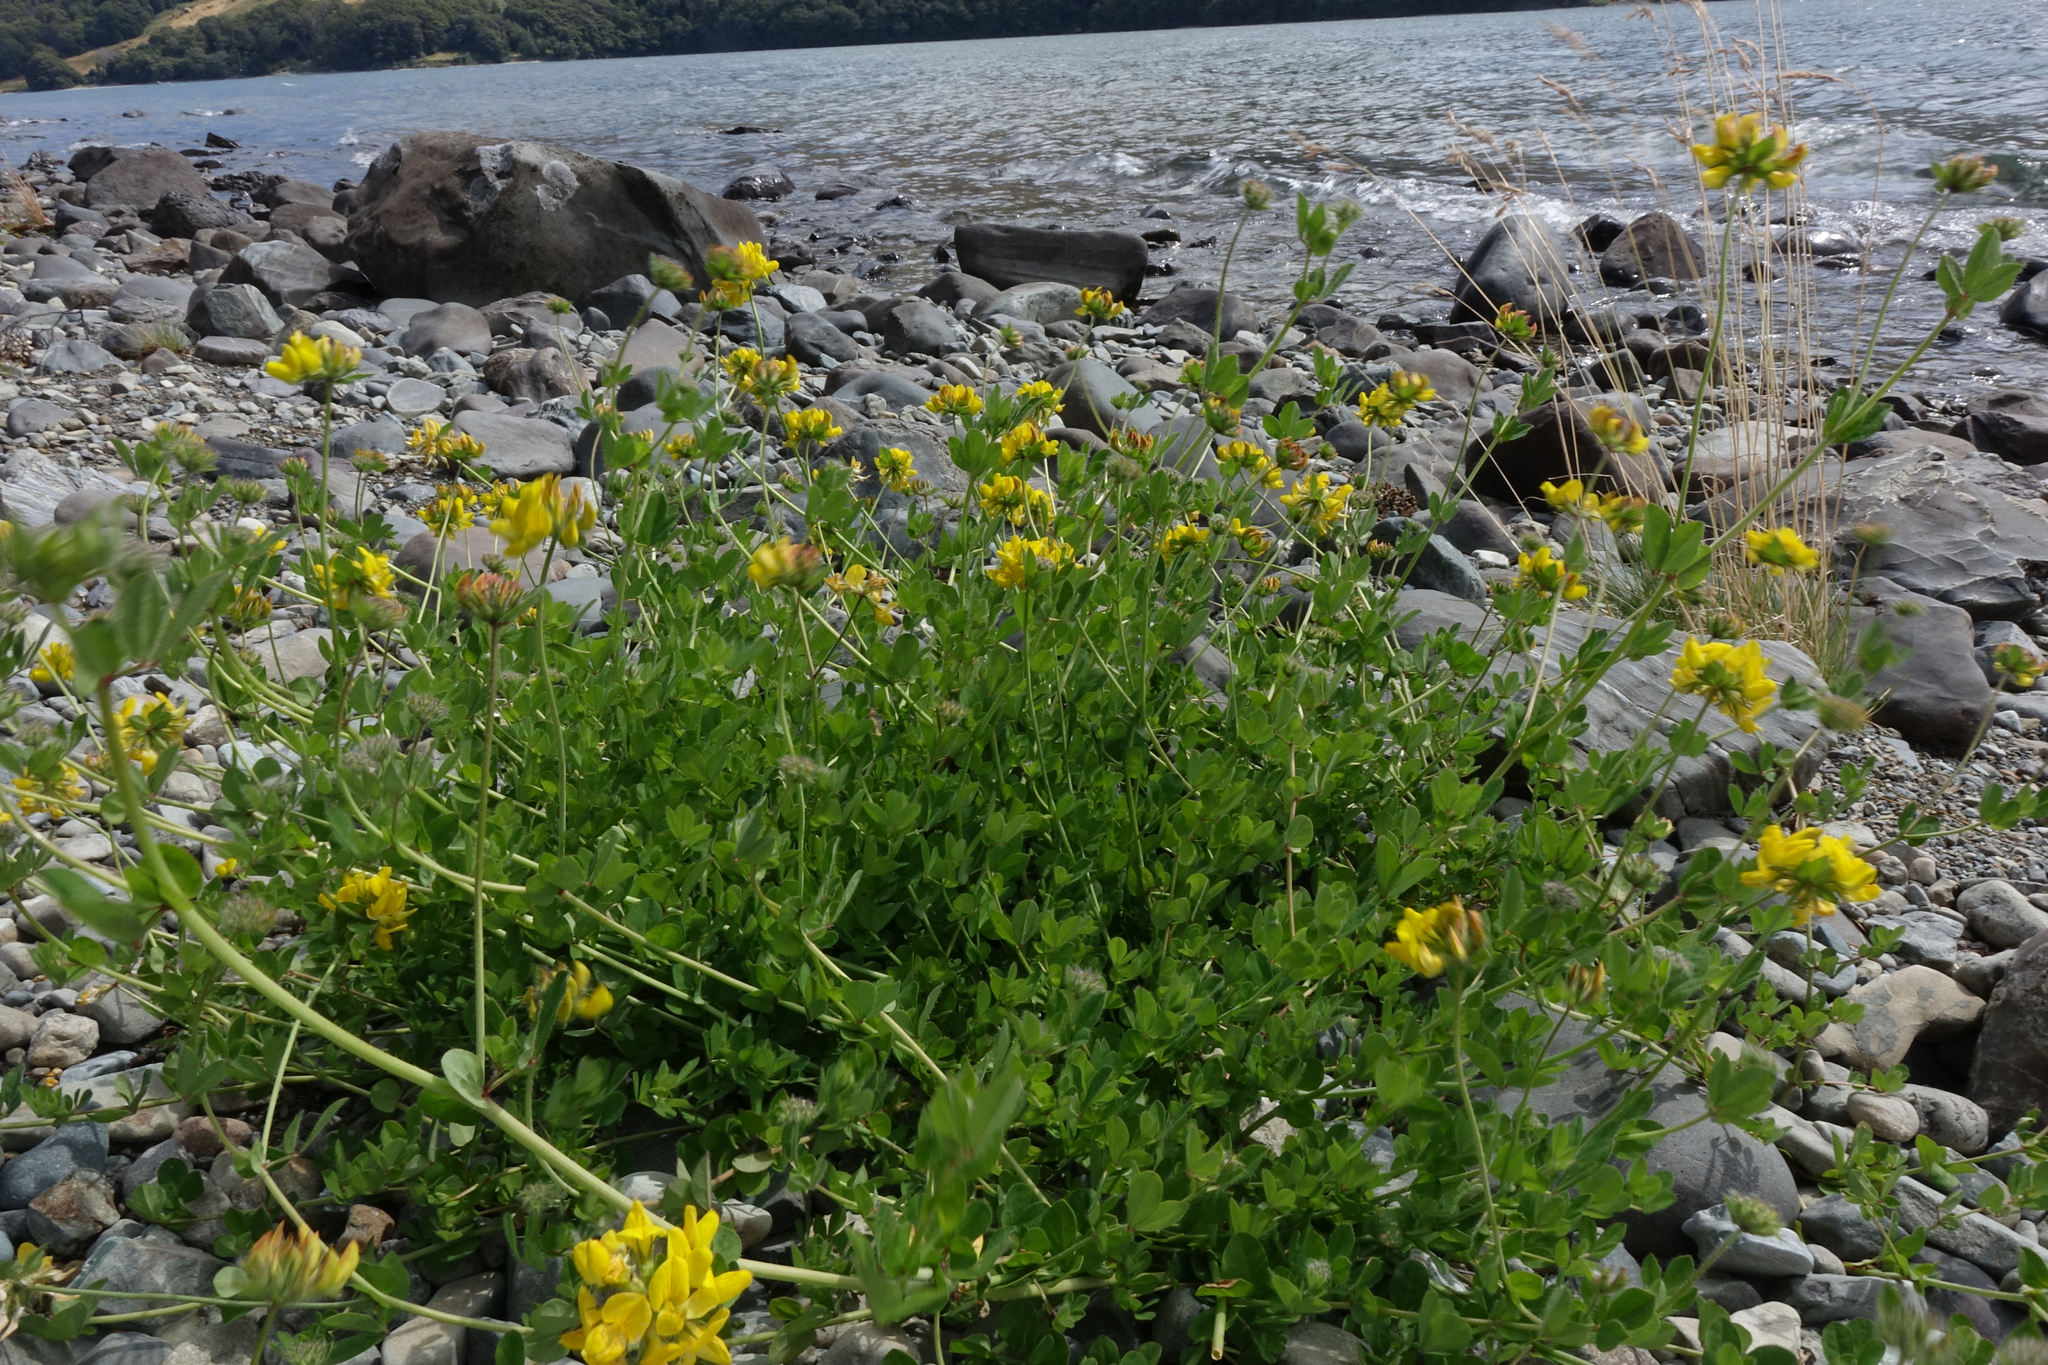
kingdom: Plantae
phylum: Tracheophyta
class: Magnoliopsida
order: Fabales
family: Fabaceae
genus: Lotus
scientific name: Lotus pedunculatus
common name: Greater birdsfoot-trefoil
